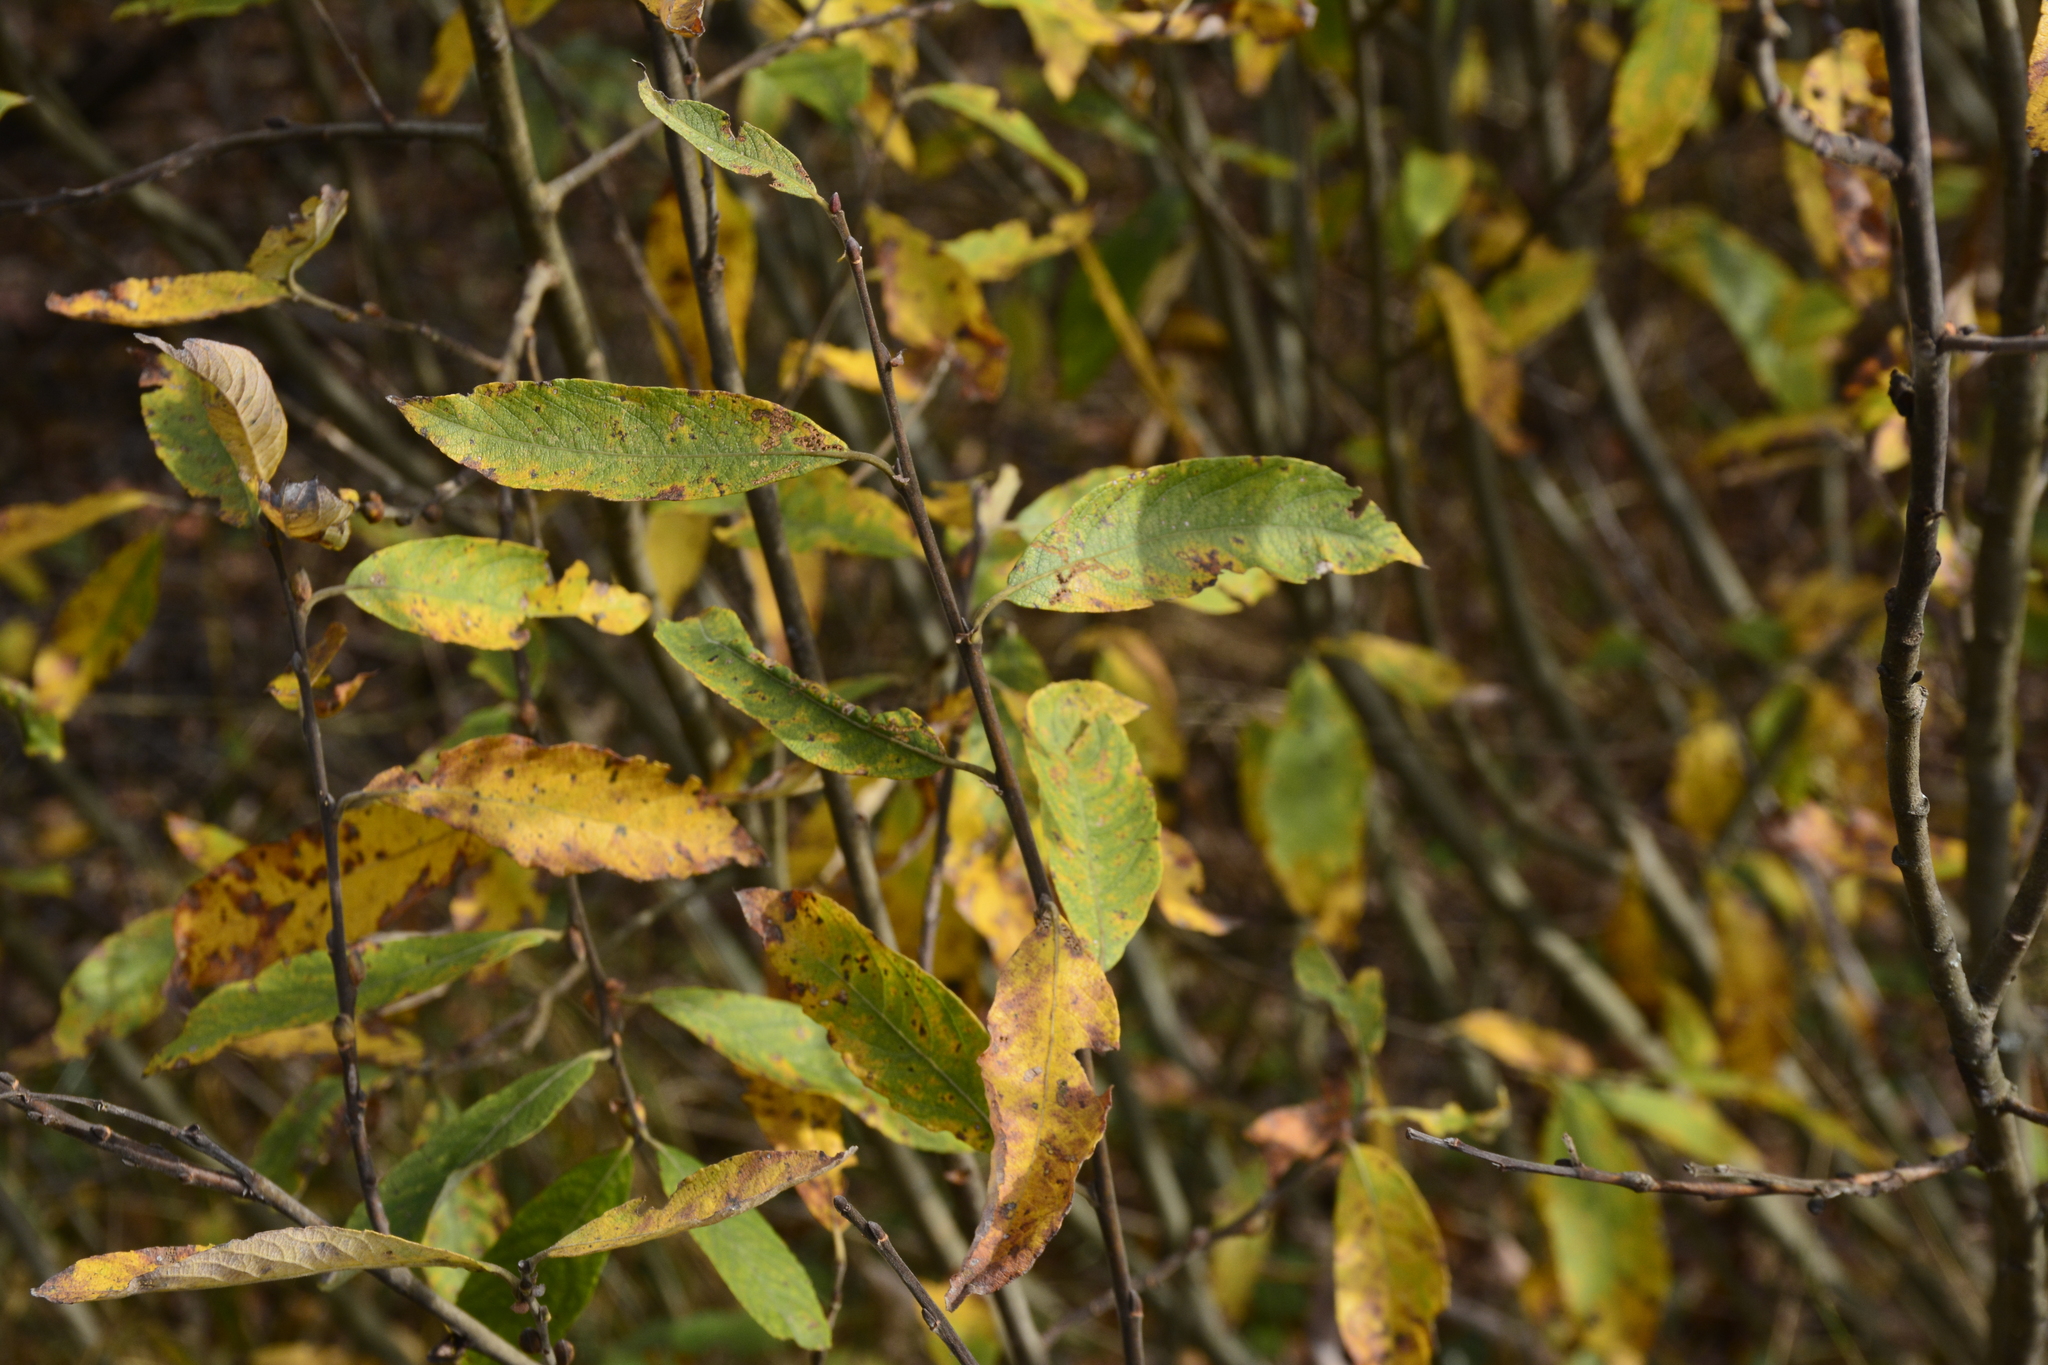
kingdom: Plantae
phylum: Tracheophyta
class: Magnoliopsida
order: Malpighiales
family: Salicaceae
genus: Salix
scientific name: Salix cinerea
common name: Common sallow
